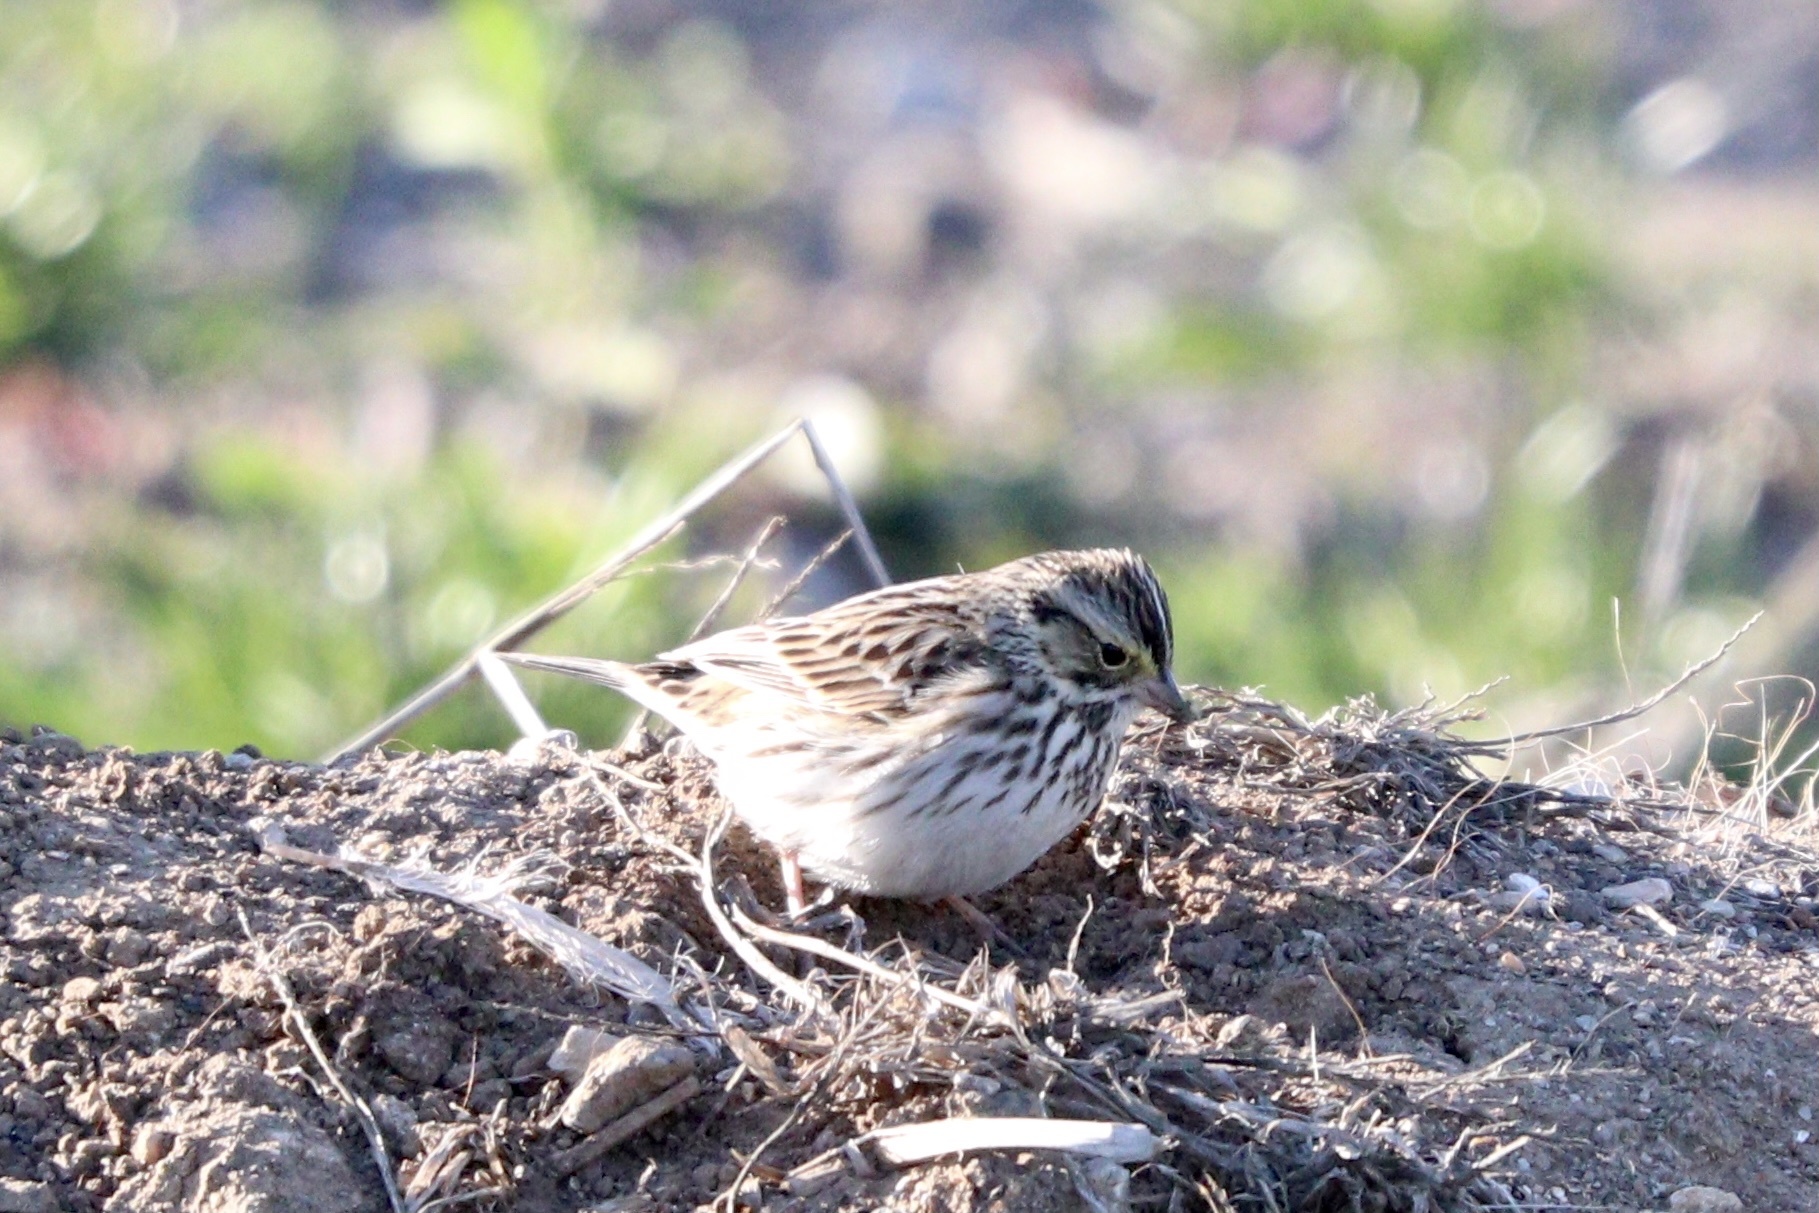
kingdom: Animalia
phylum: Chordata
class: Aves
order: Passeriformes
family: Passerellidae
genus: Passerculus
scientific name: Passerculus sandwichensis
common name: Savannah sparrow
